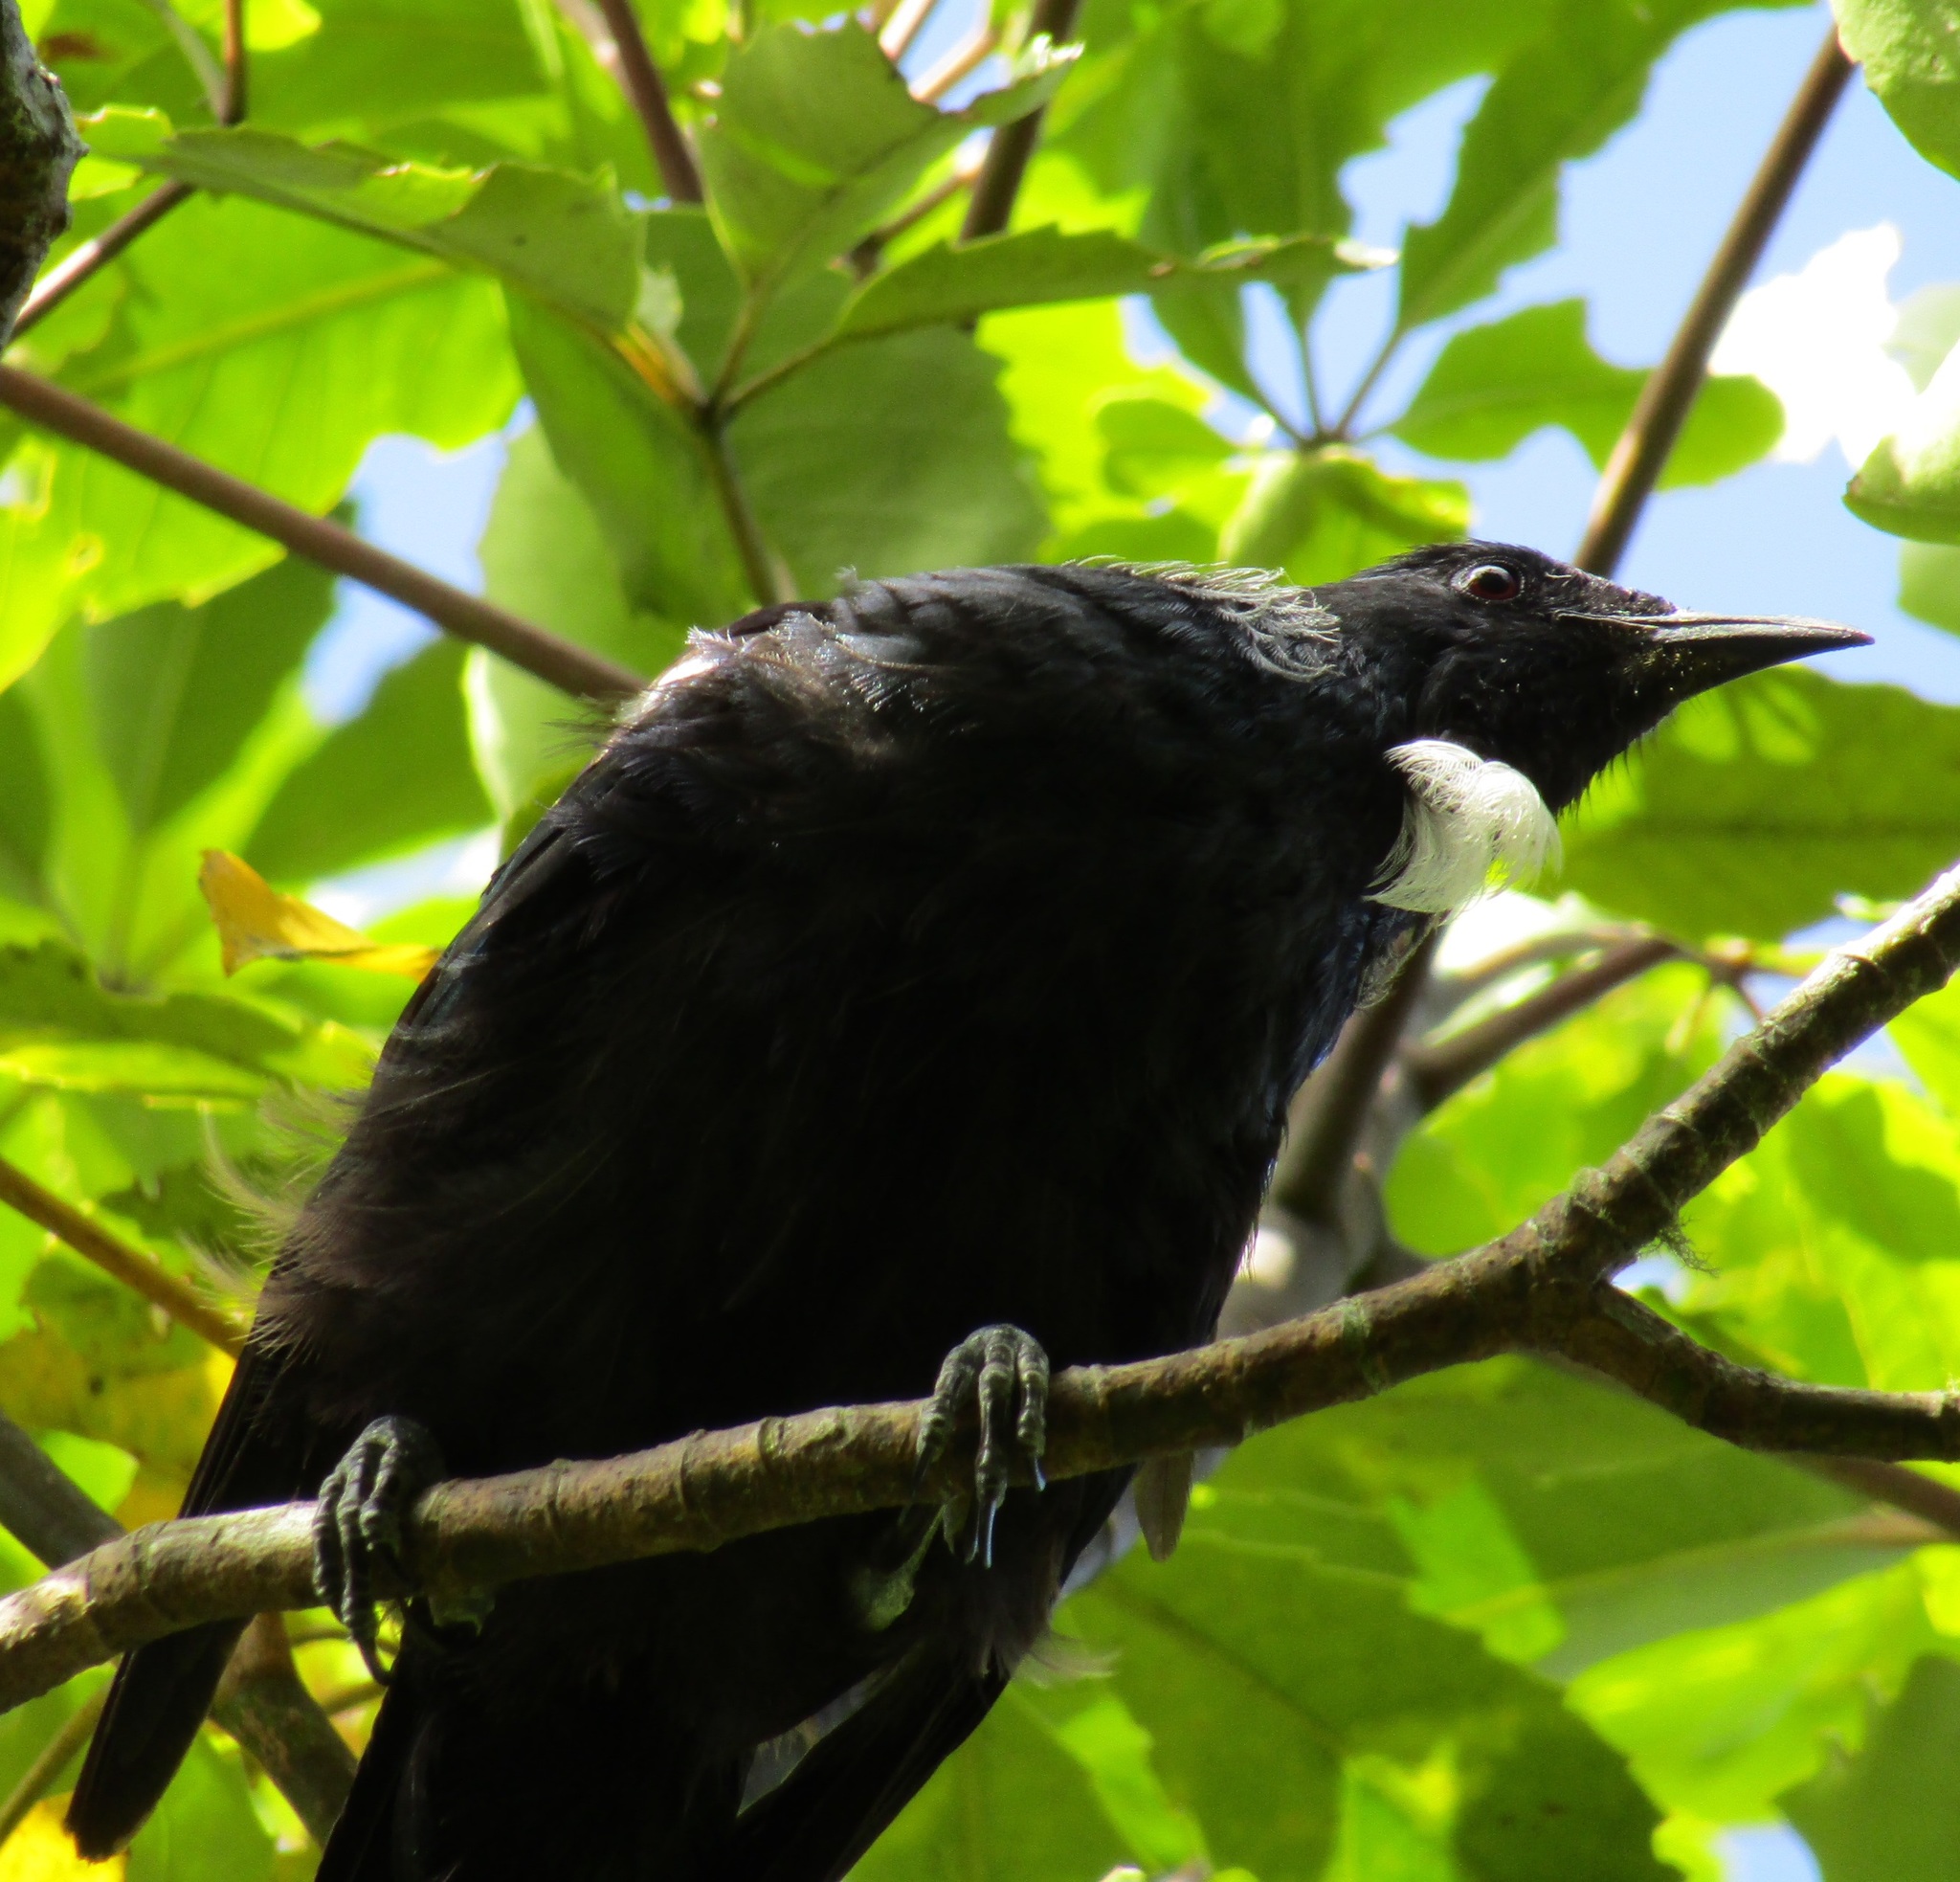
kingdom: Animalia
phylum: Chordata
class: Aves
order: Passeriformes
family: Meliphagidae
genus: Prosthemadera
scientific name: Prosthemadera novaeseelandiae
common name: Tui
